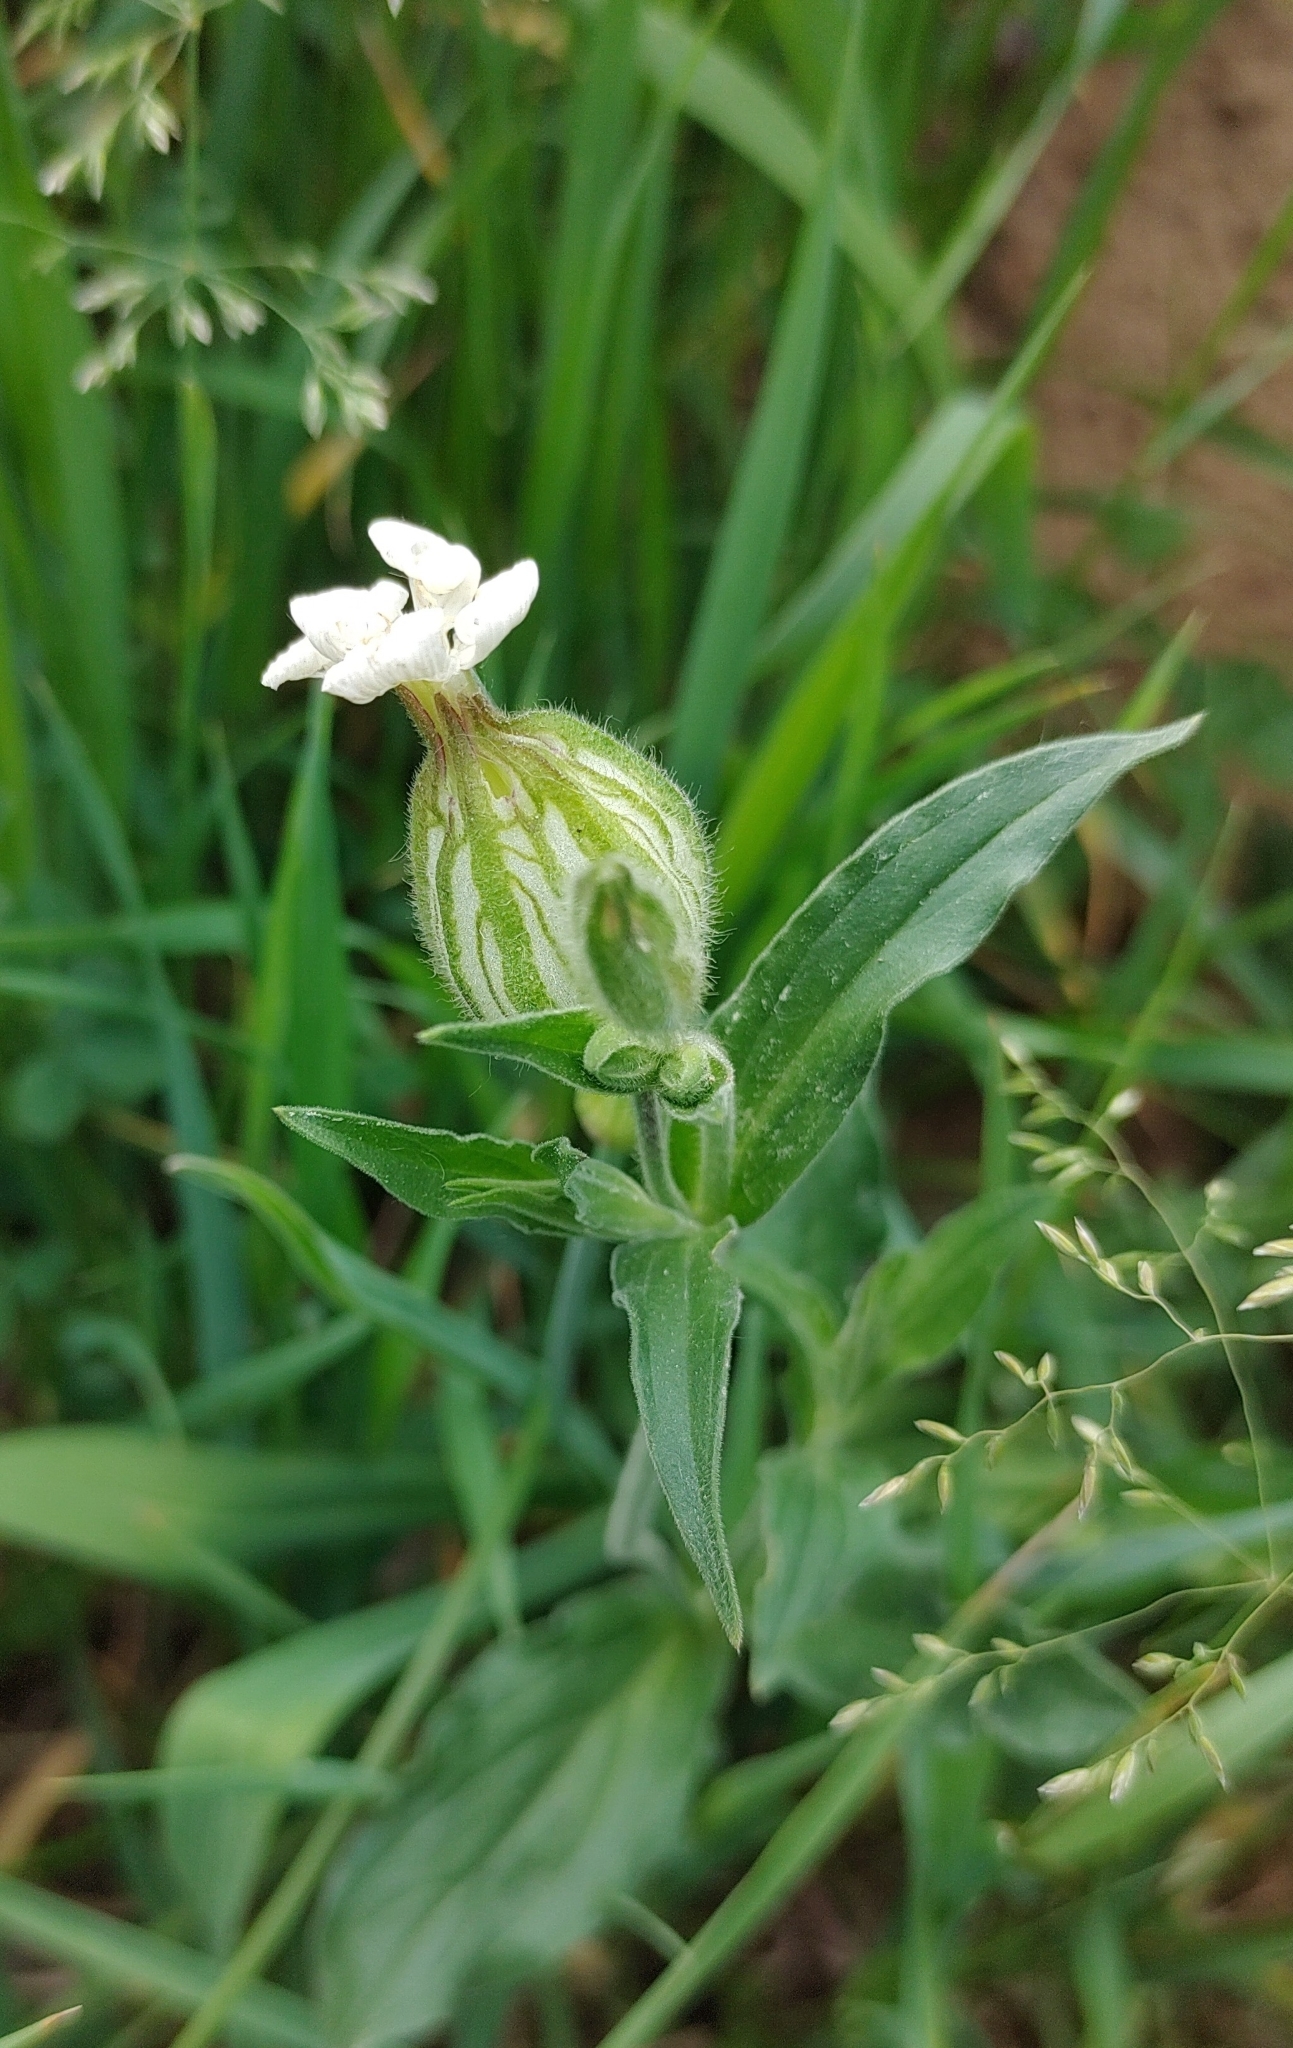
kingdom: Plantae
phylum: Tracheophyta
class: Magnoliopsida
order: Caryophyllales
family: Caryophyllaceae
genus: Silene
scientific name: Silene latifolia
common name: White campion
